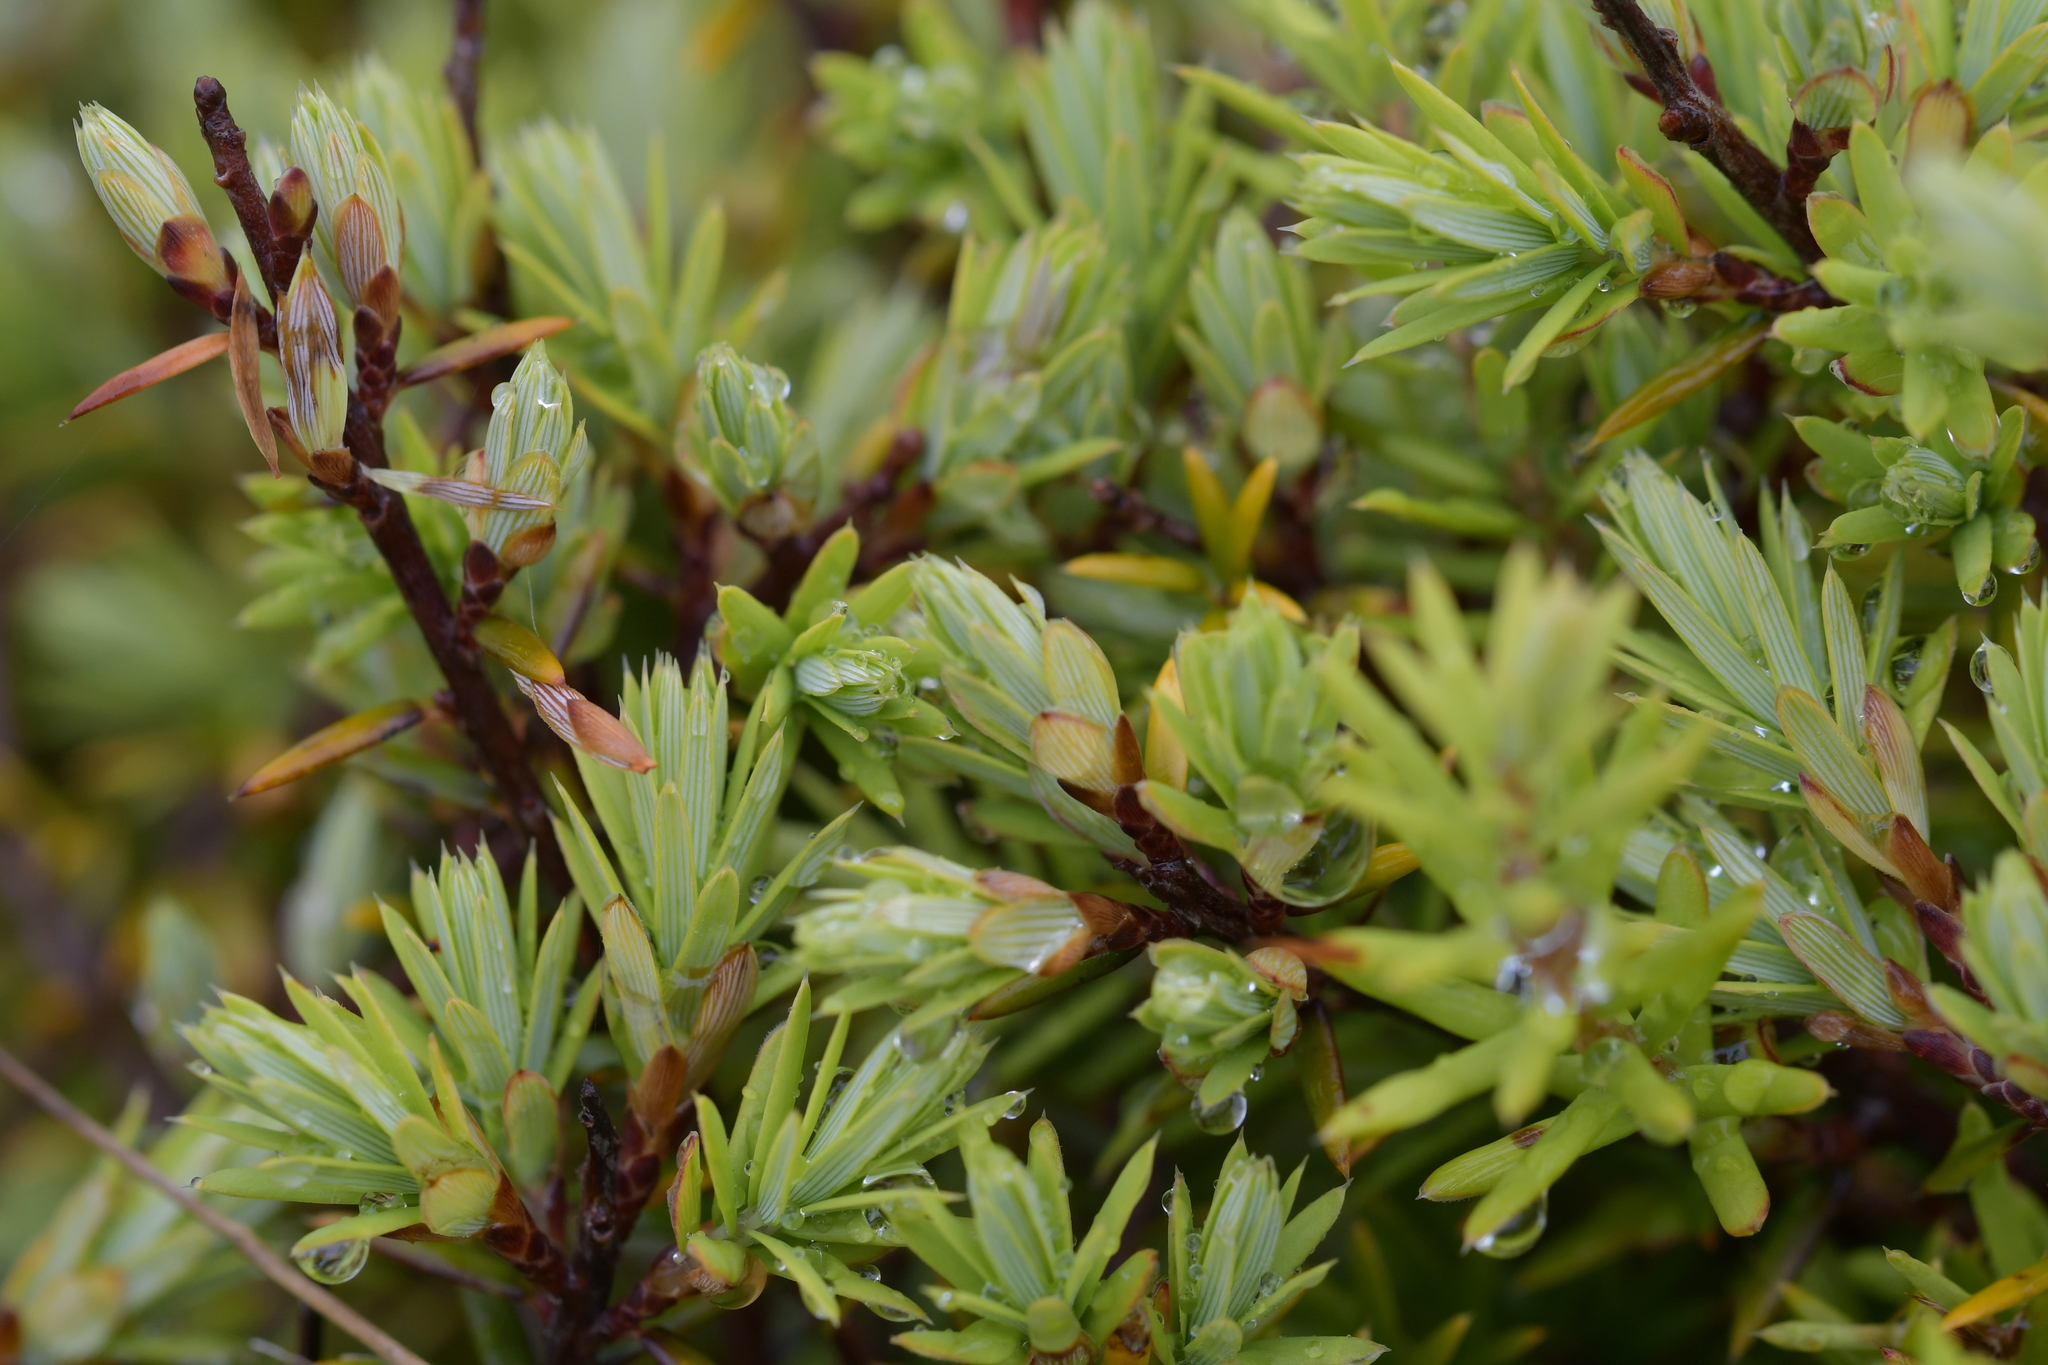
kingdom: Plantae
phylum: Tracheophyta
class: Magnoliopsida
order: Ericales
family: Ericaceae
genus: Leptecophylla
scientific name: Leptecophylla juniperina
